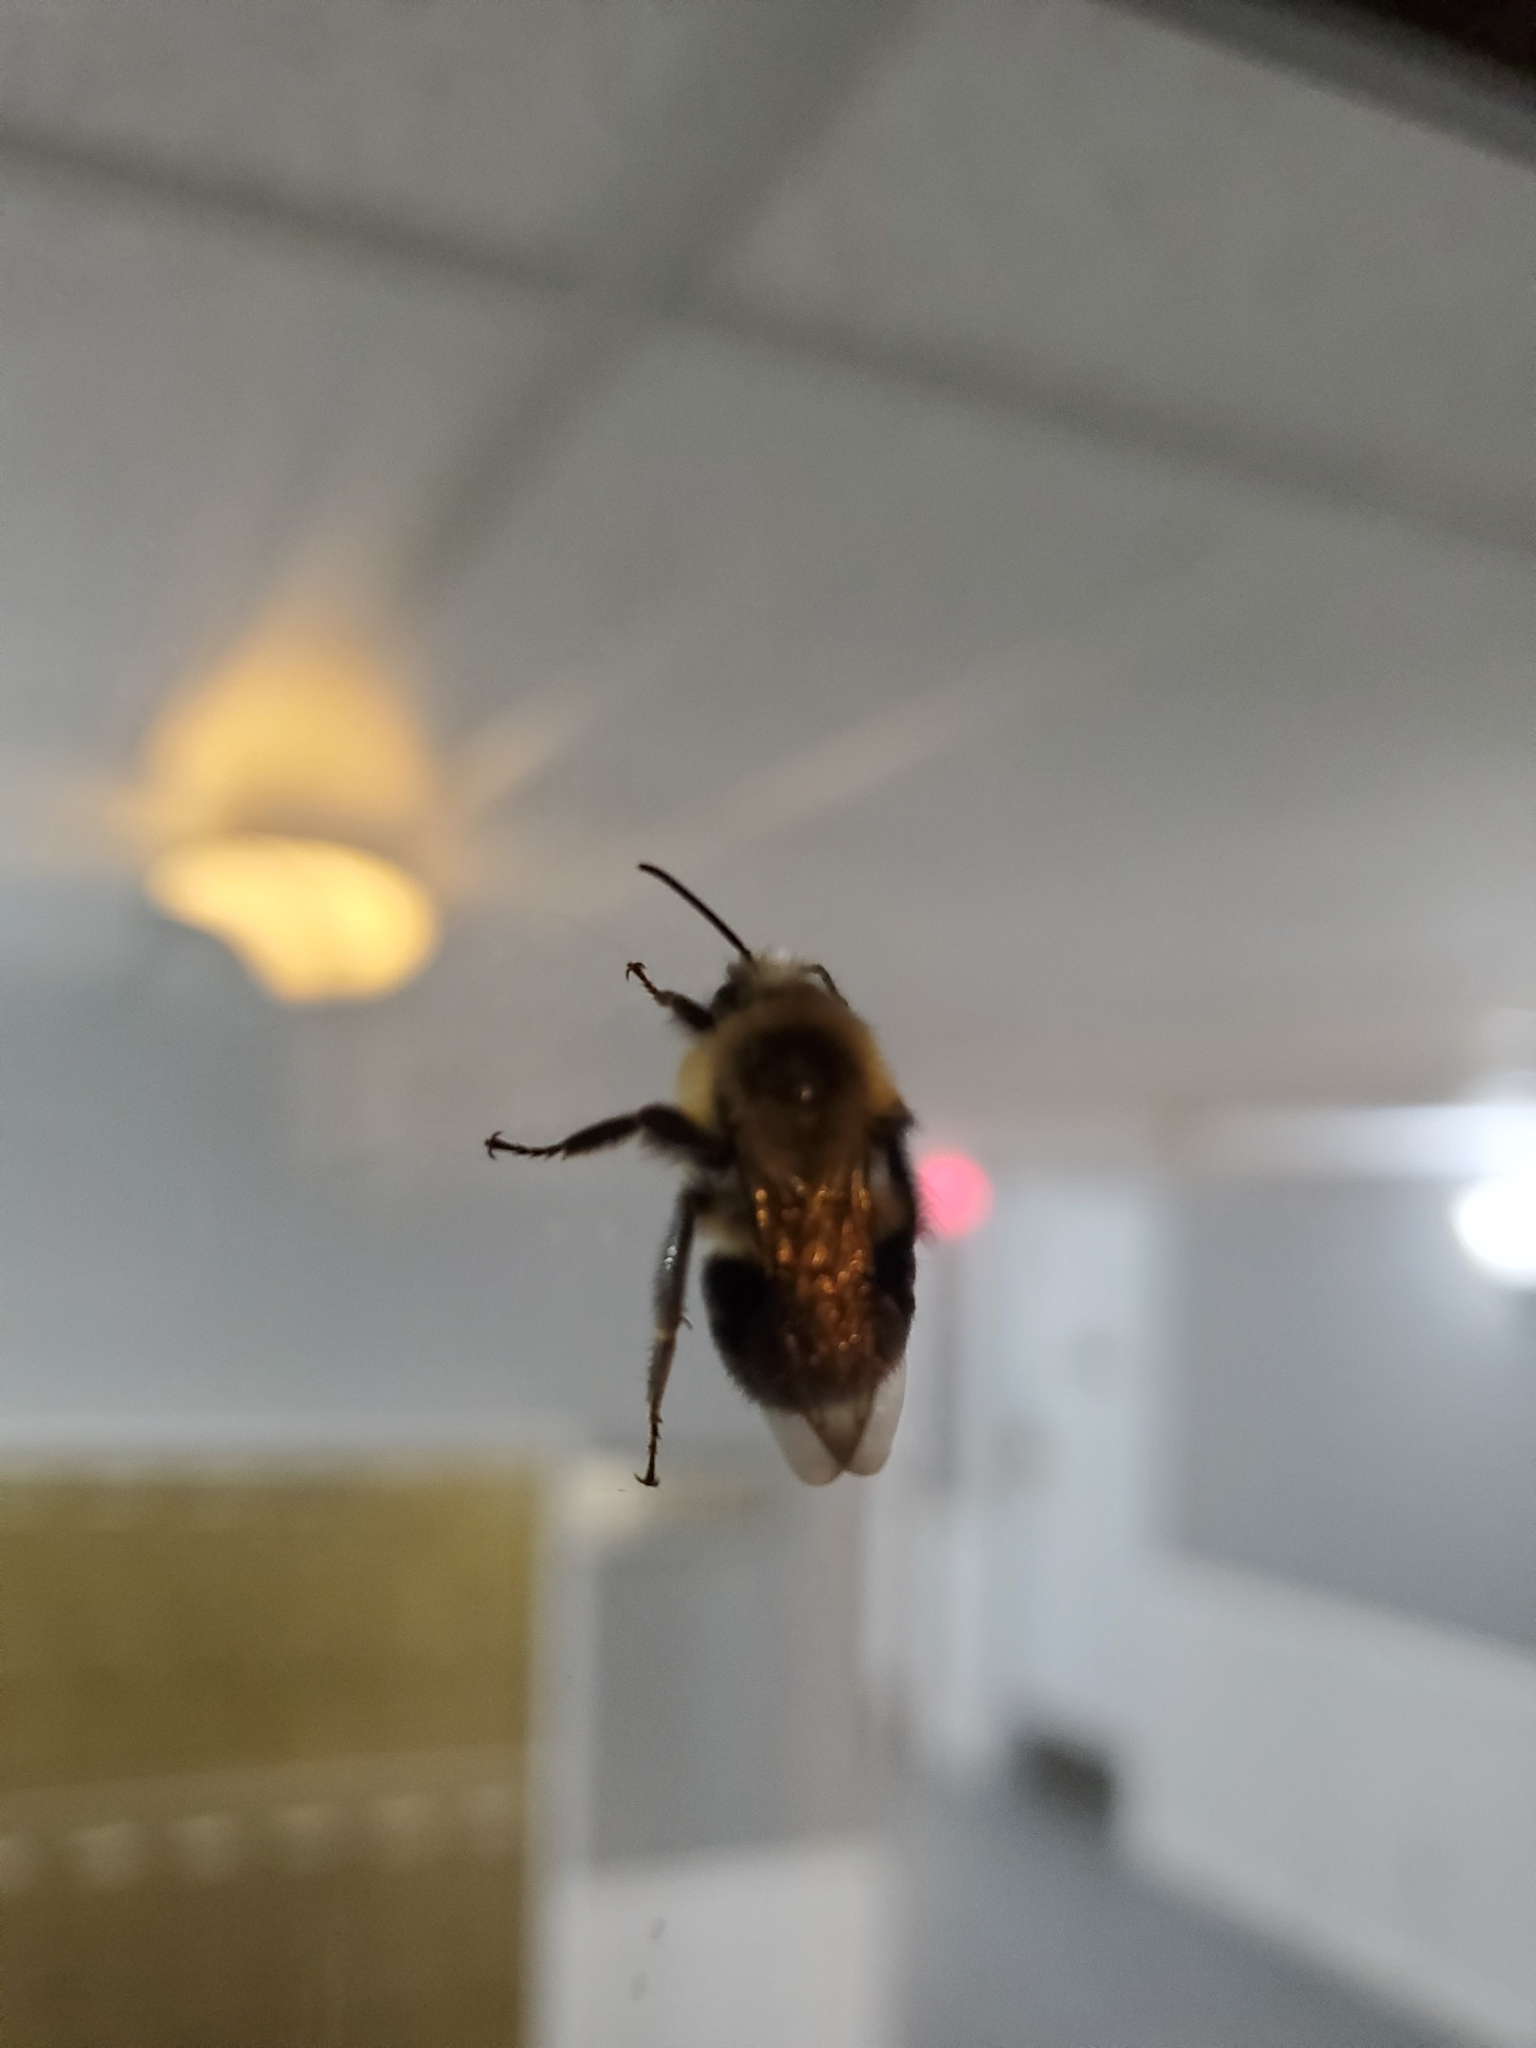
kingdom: Animalia
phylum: Arthropoda
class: Insecta
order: Hymenoptera
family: Apidae
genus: Bombus
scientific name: Bombus impatiens
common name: Common eastern bumble bee
